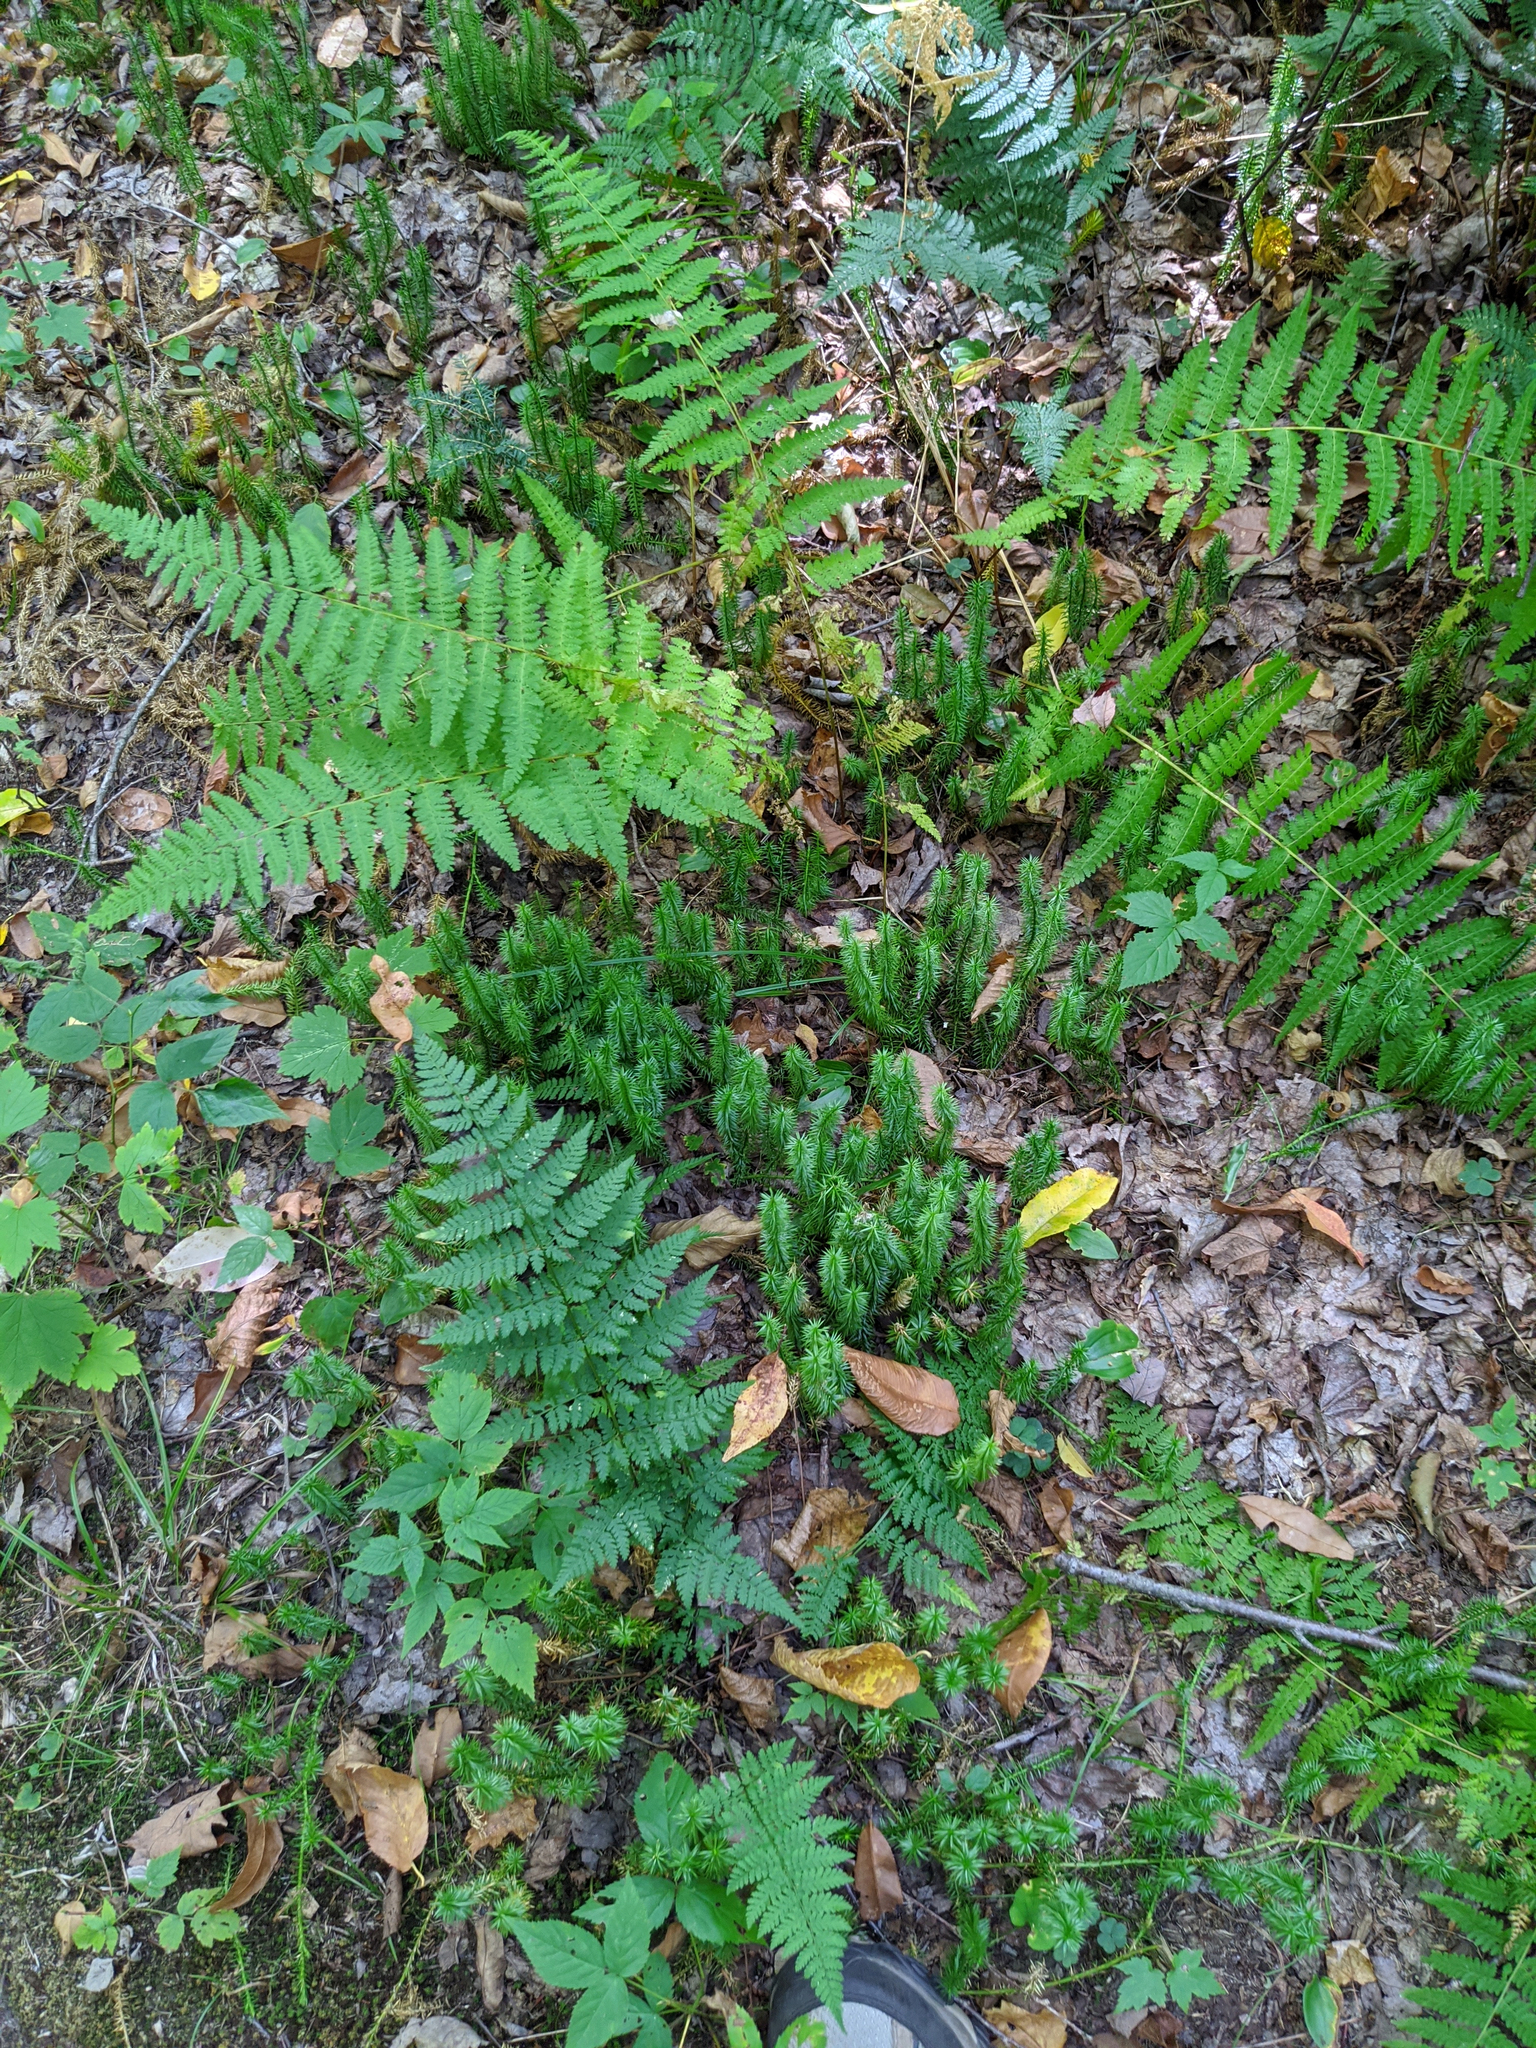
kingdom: Plantae
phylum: Tracheophyta
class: Lycopodiopsida
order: Lycopodiales
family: Lycopodiaceae
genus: Spinulum
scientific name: Spinulum annotinum
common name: Interrupted club-moss
